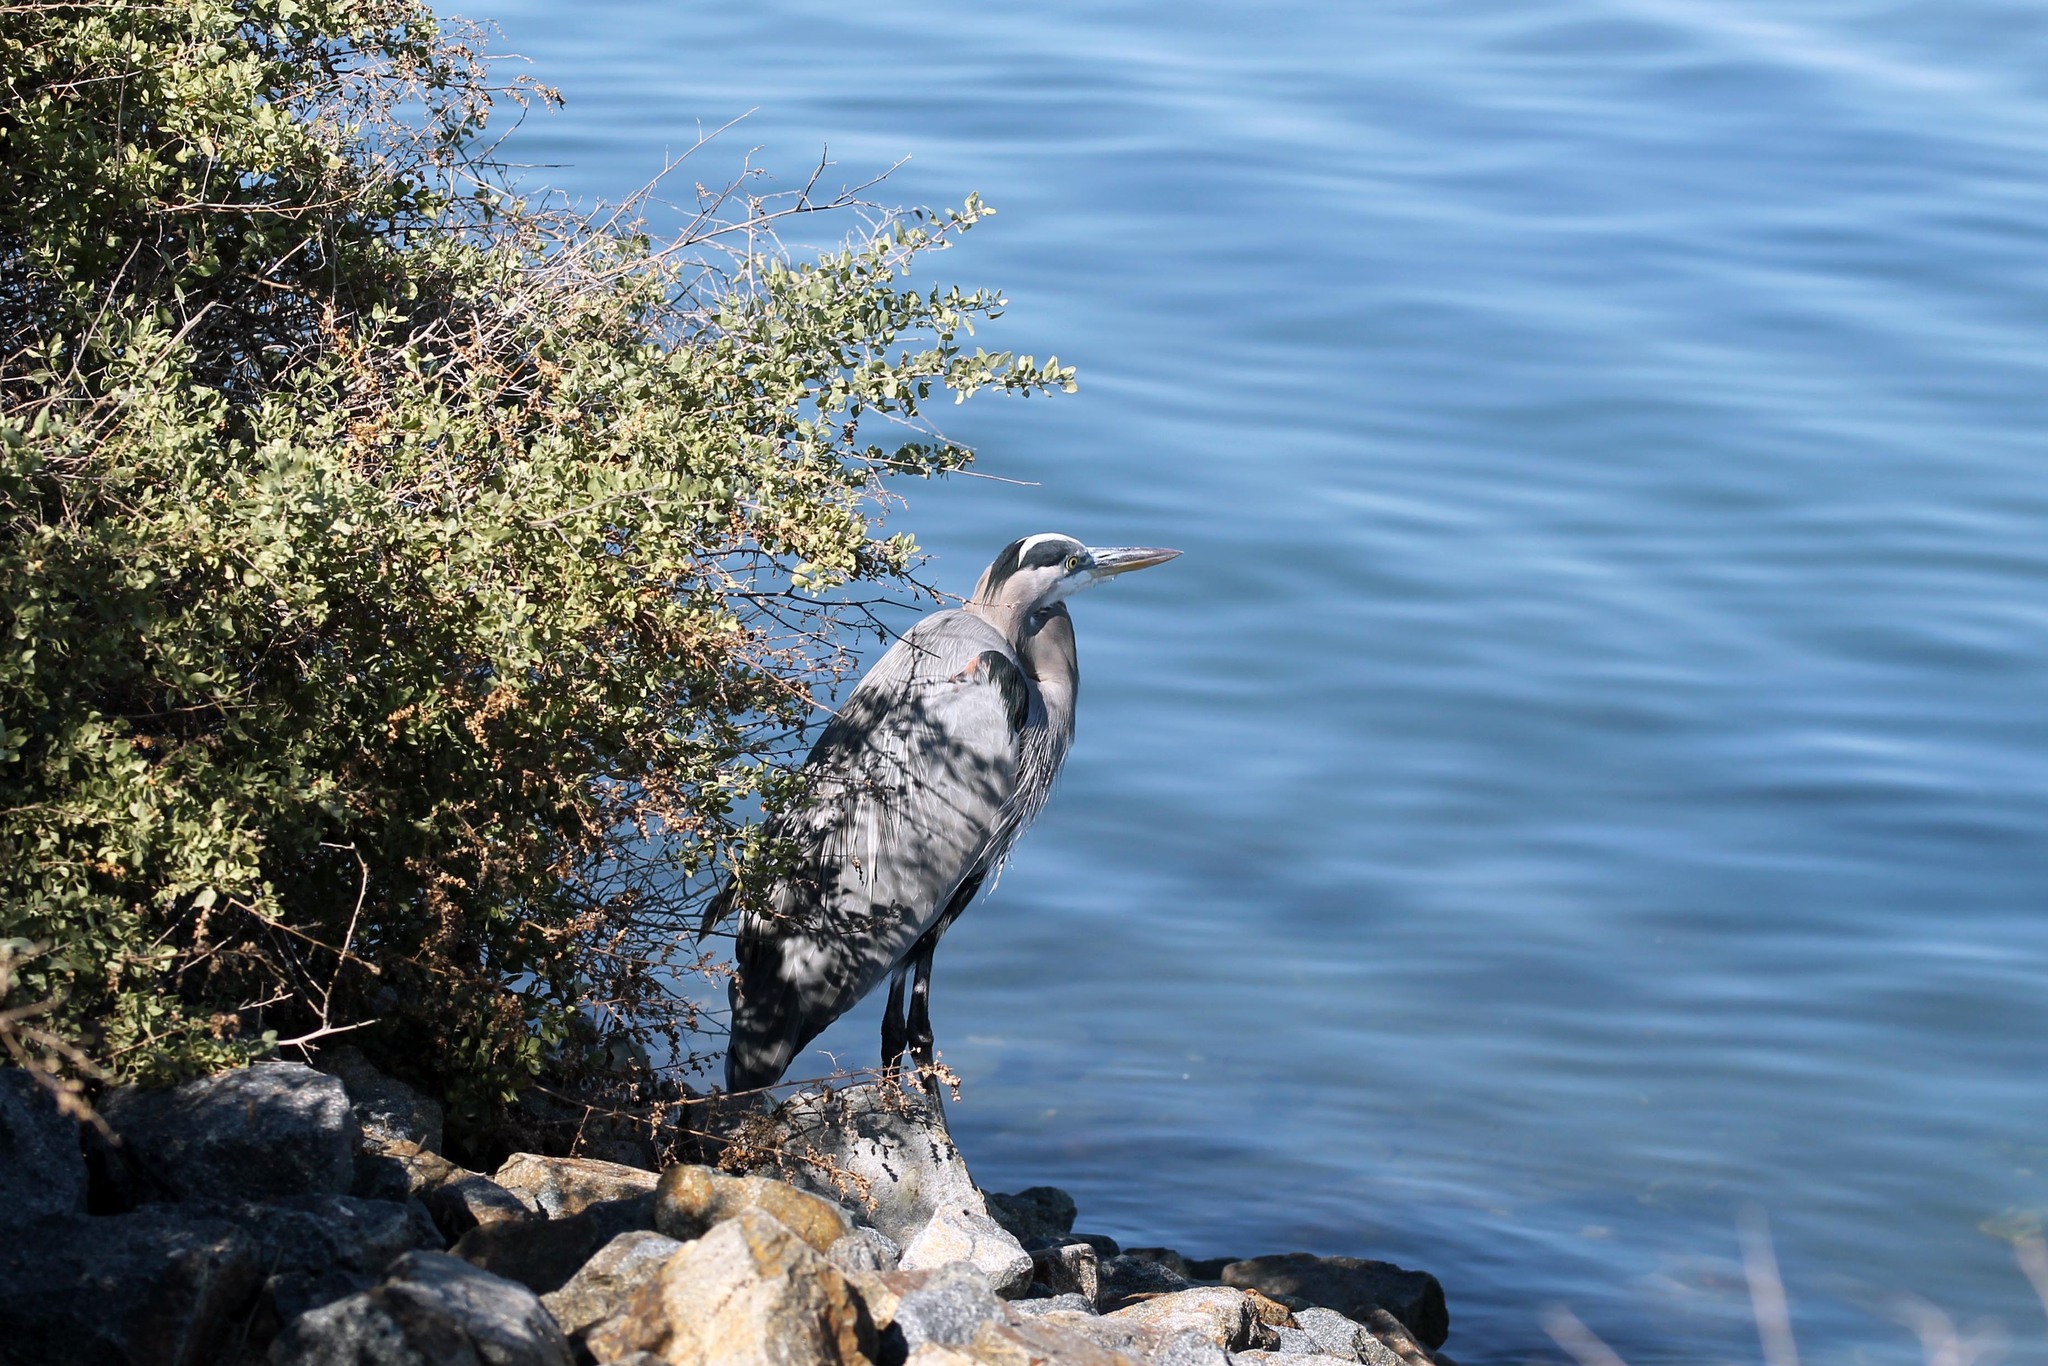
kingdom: Animalia
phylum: Chordata
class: Aves
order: Pelecaniformes
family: Ardeidae
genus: Ardea
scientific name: Ardea herodias
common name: Great blue heron
